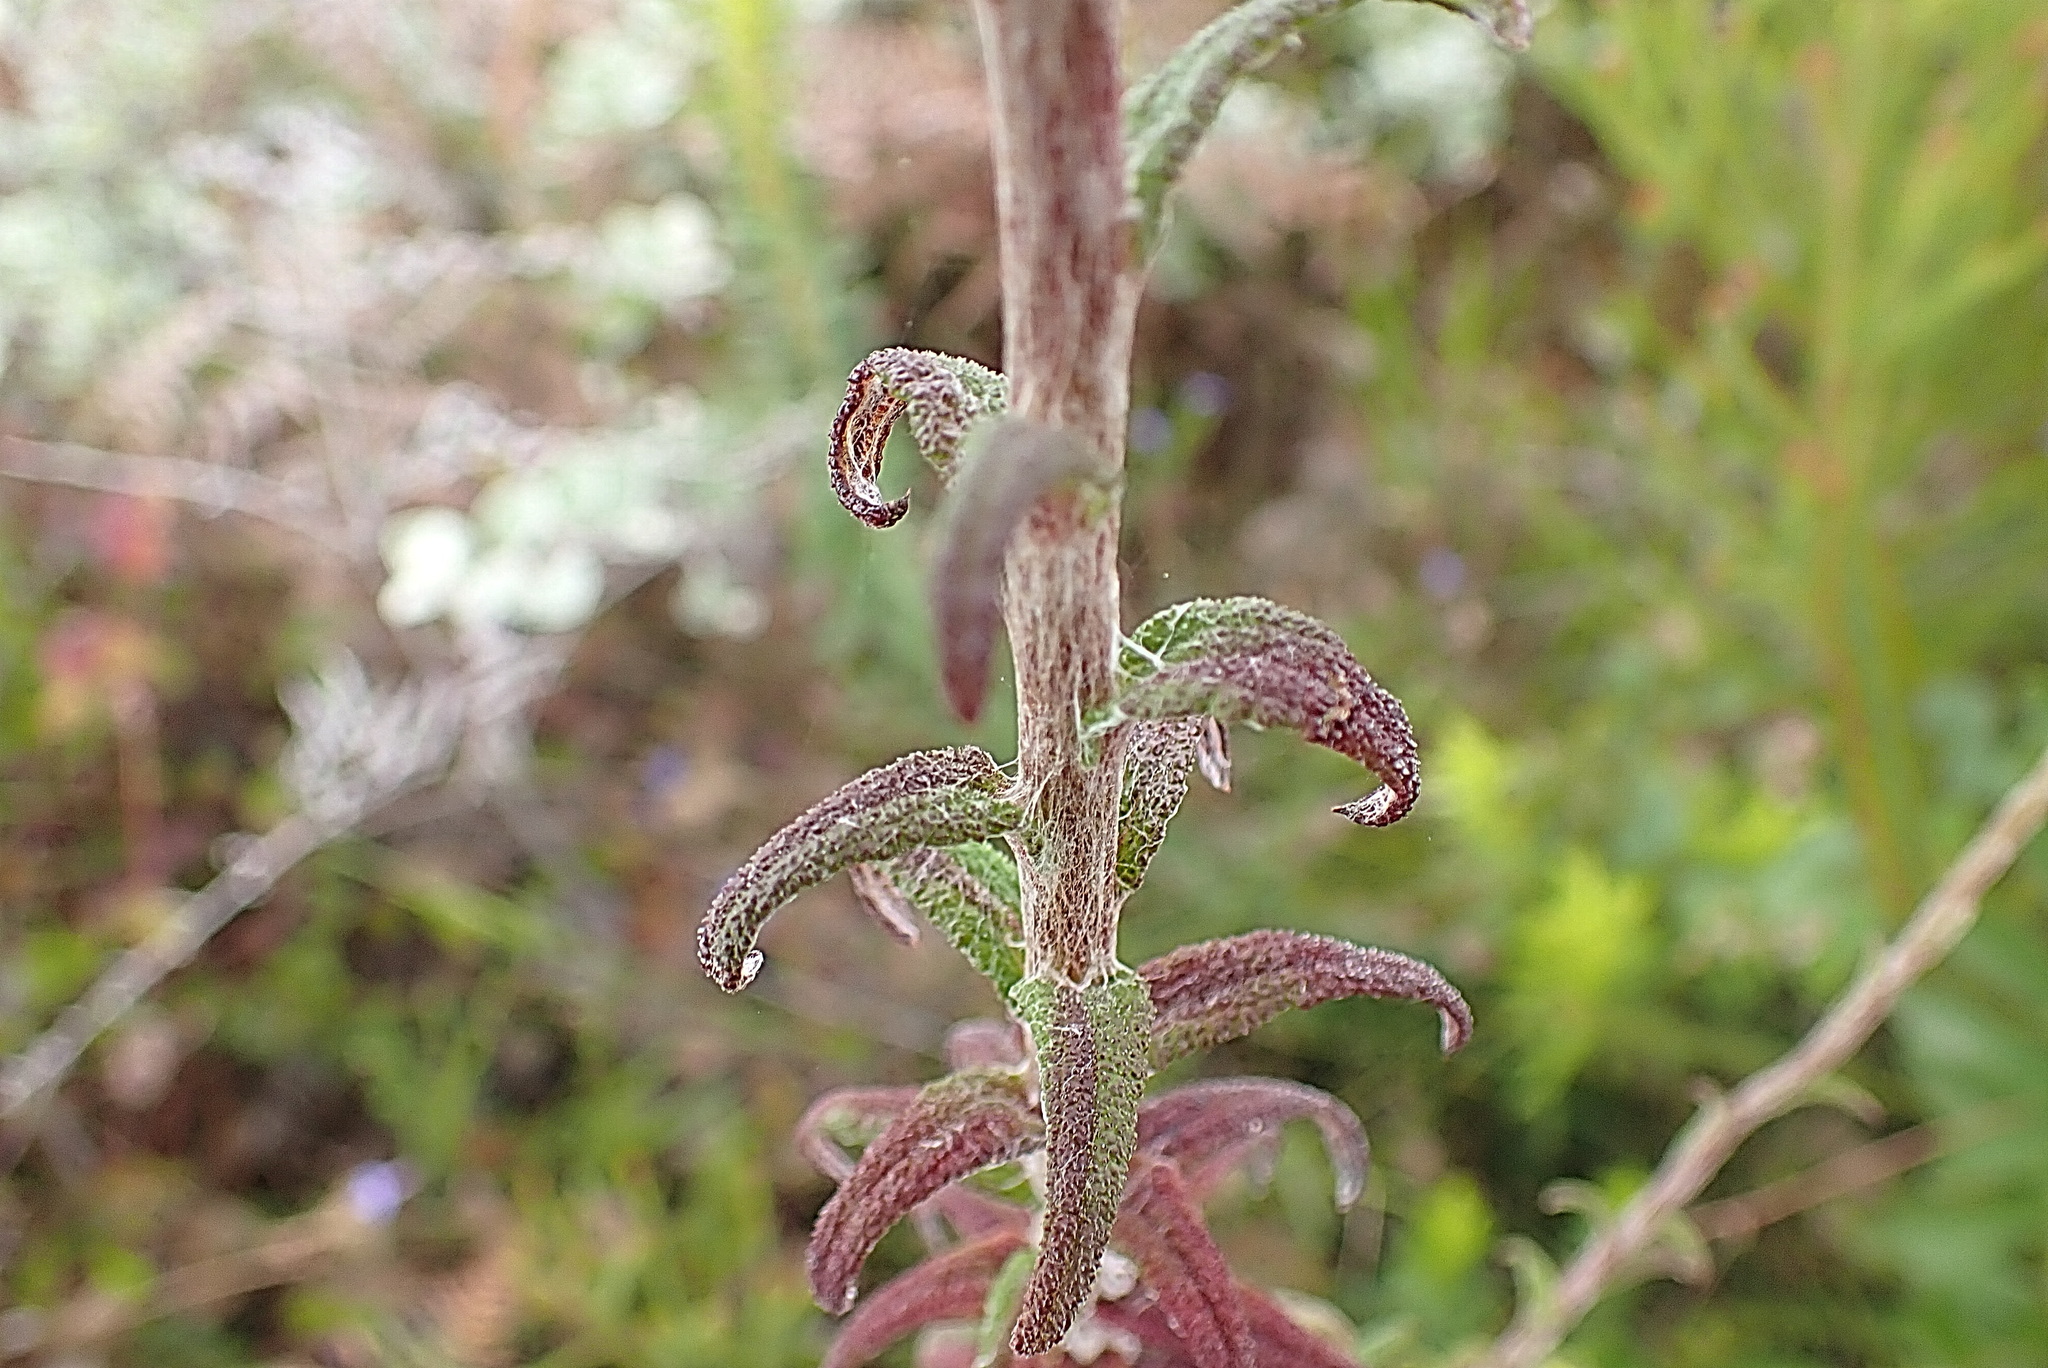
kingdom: Plantae
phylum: Tracheophyta
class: Magnoliopsida
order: Asterales
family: Asteraceae
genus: Helichrysum
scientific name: Helichrysum felinum
